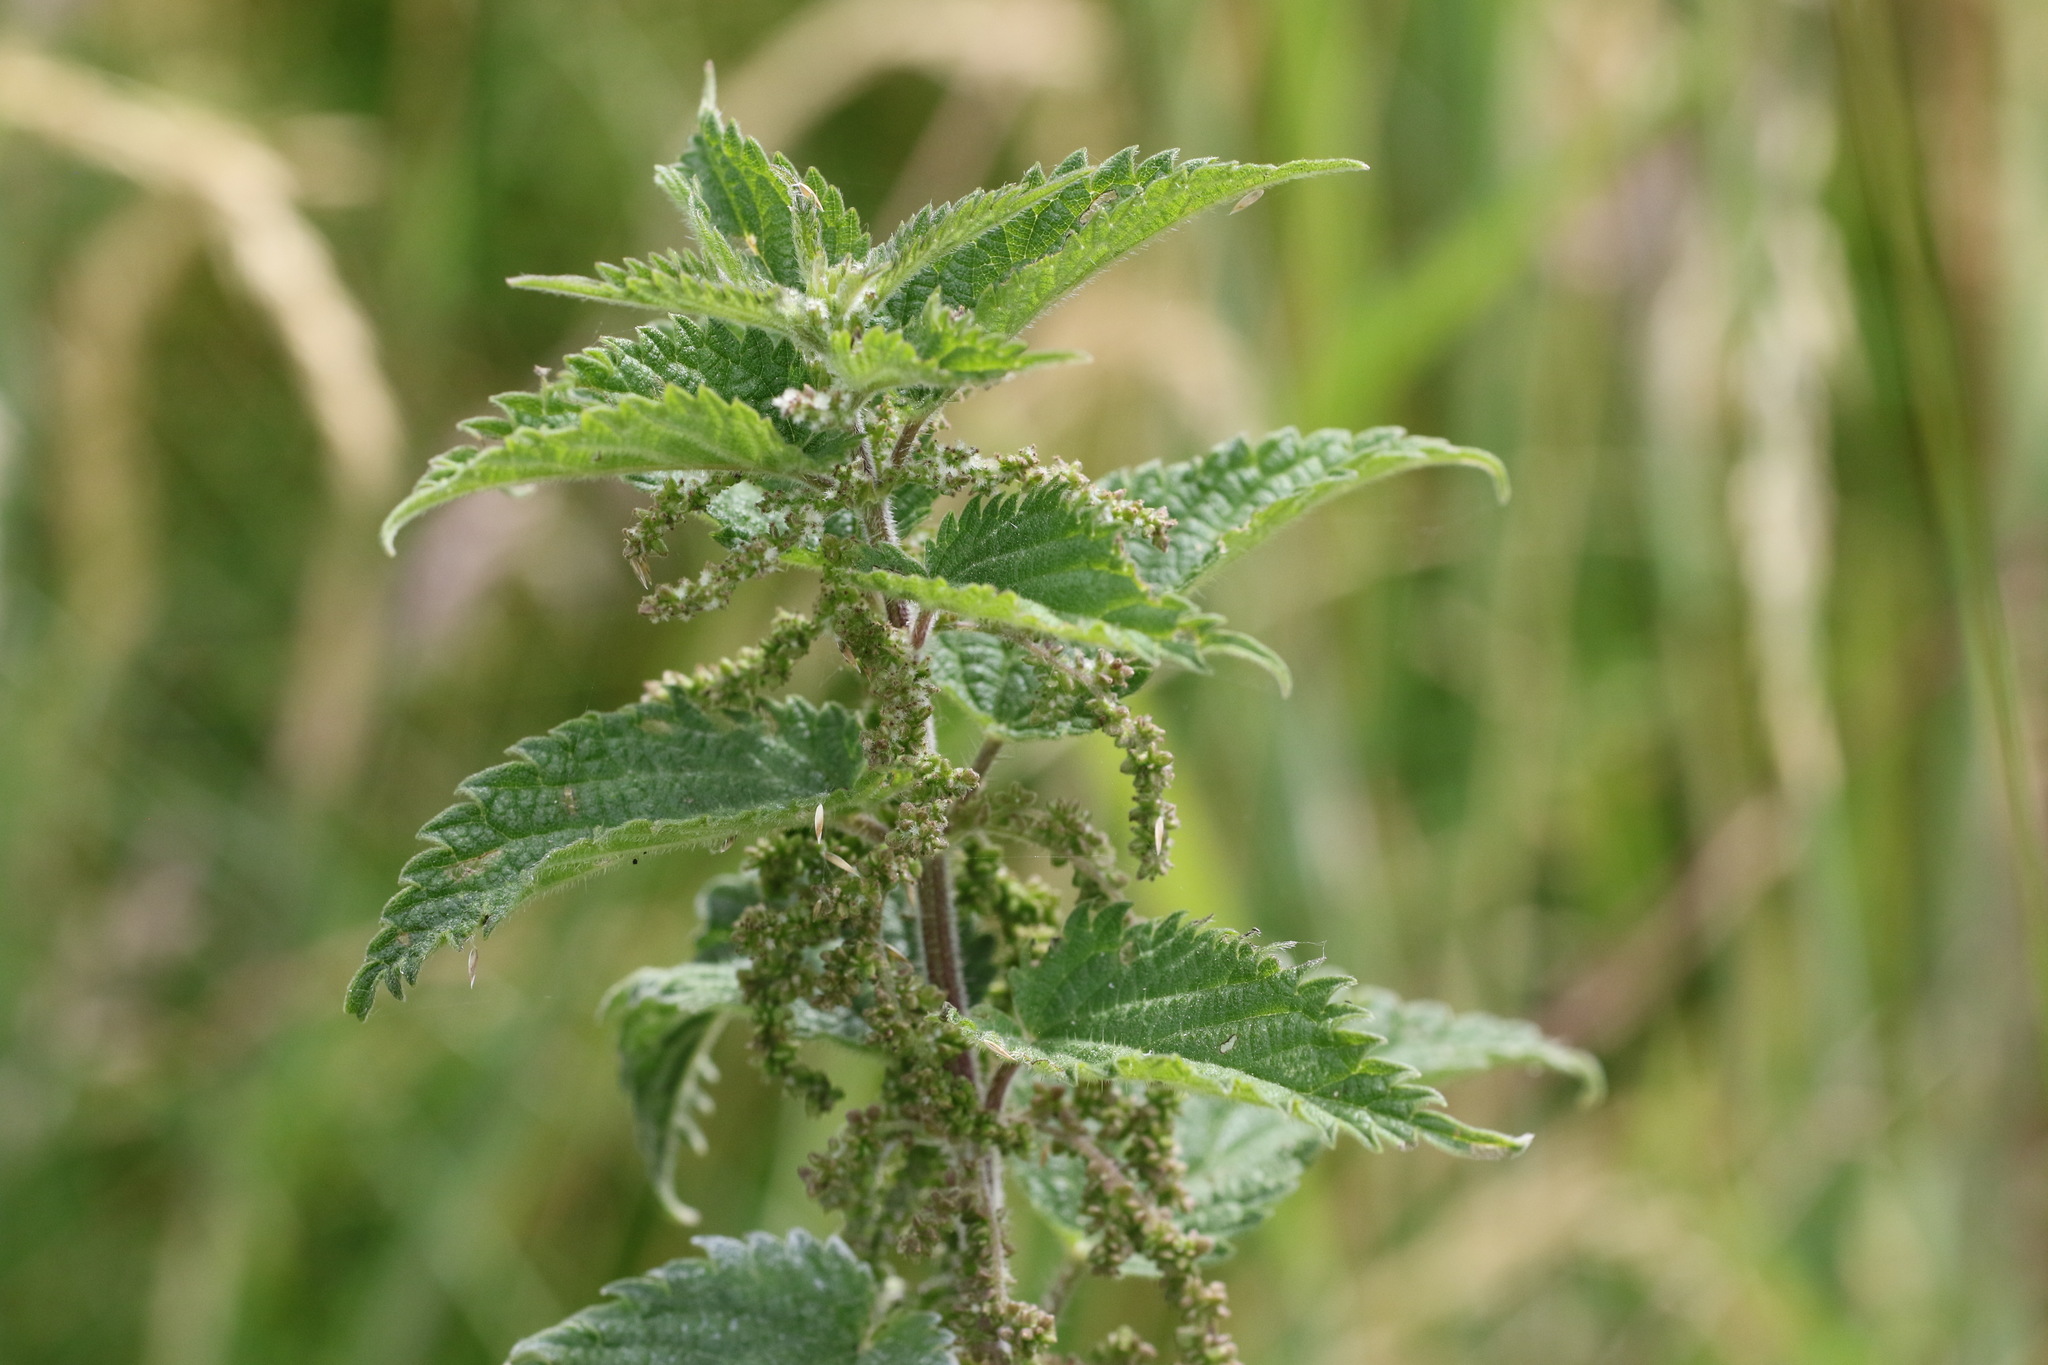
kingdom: Plantae
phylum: Tracheophyta
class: Magnoliopsida
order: Rosales
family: Urticaceae
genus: Urtica
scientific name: Urtica dioica
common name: Common nettle
